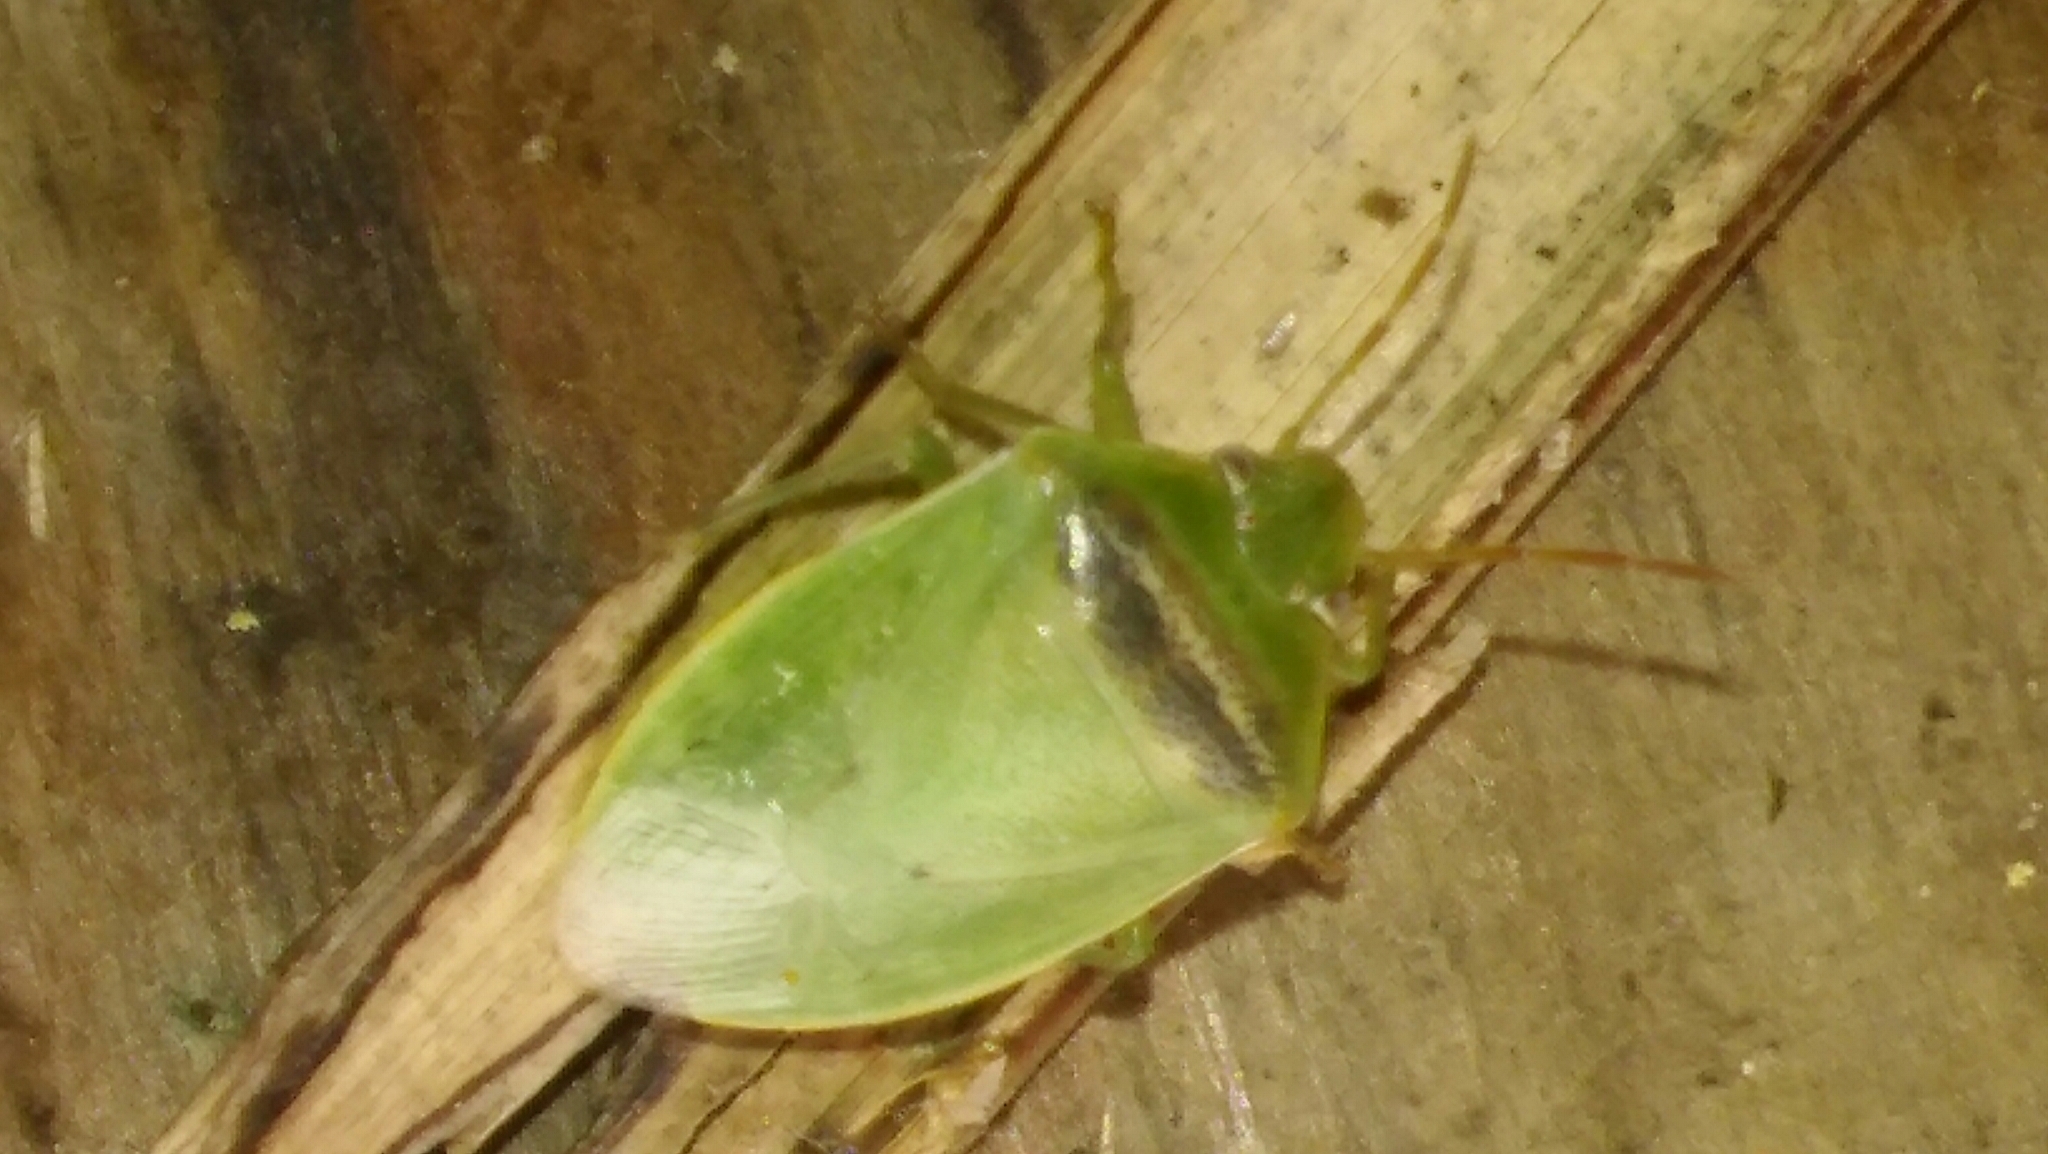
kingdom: Animalia
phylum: Arthropoda
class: Insecta
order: Hemiptera
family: Pentatomidae
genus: Piezodorus
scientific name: Piezodorus guildinii
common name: Redbanded stink bug
